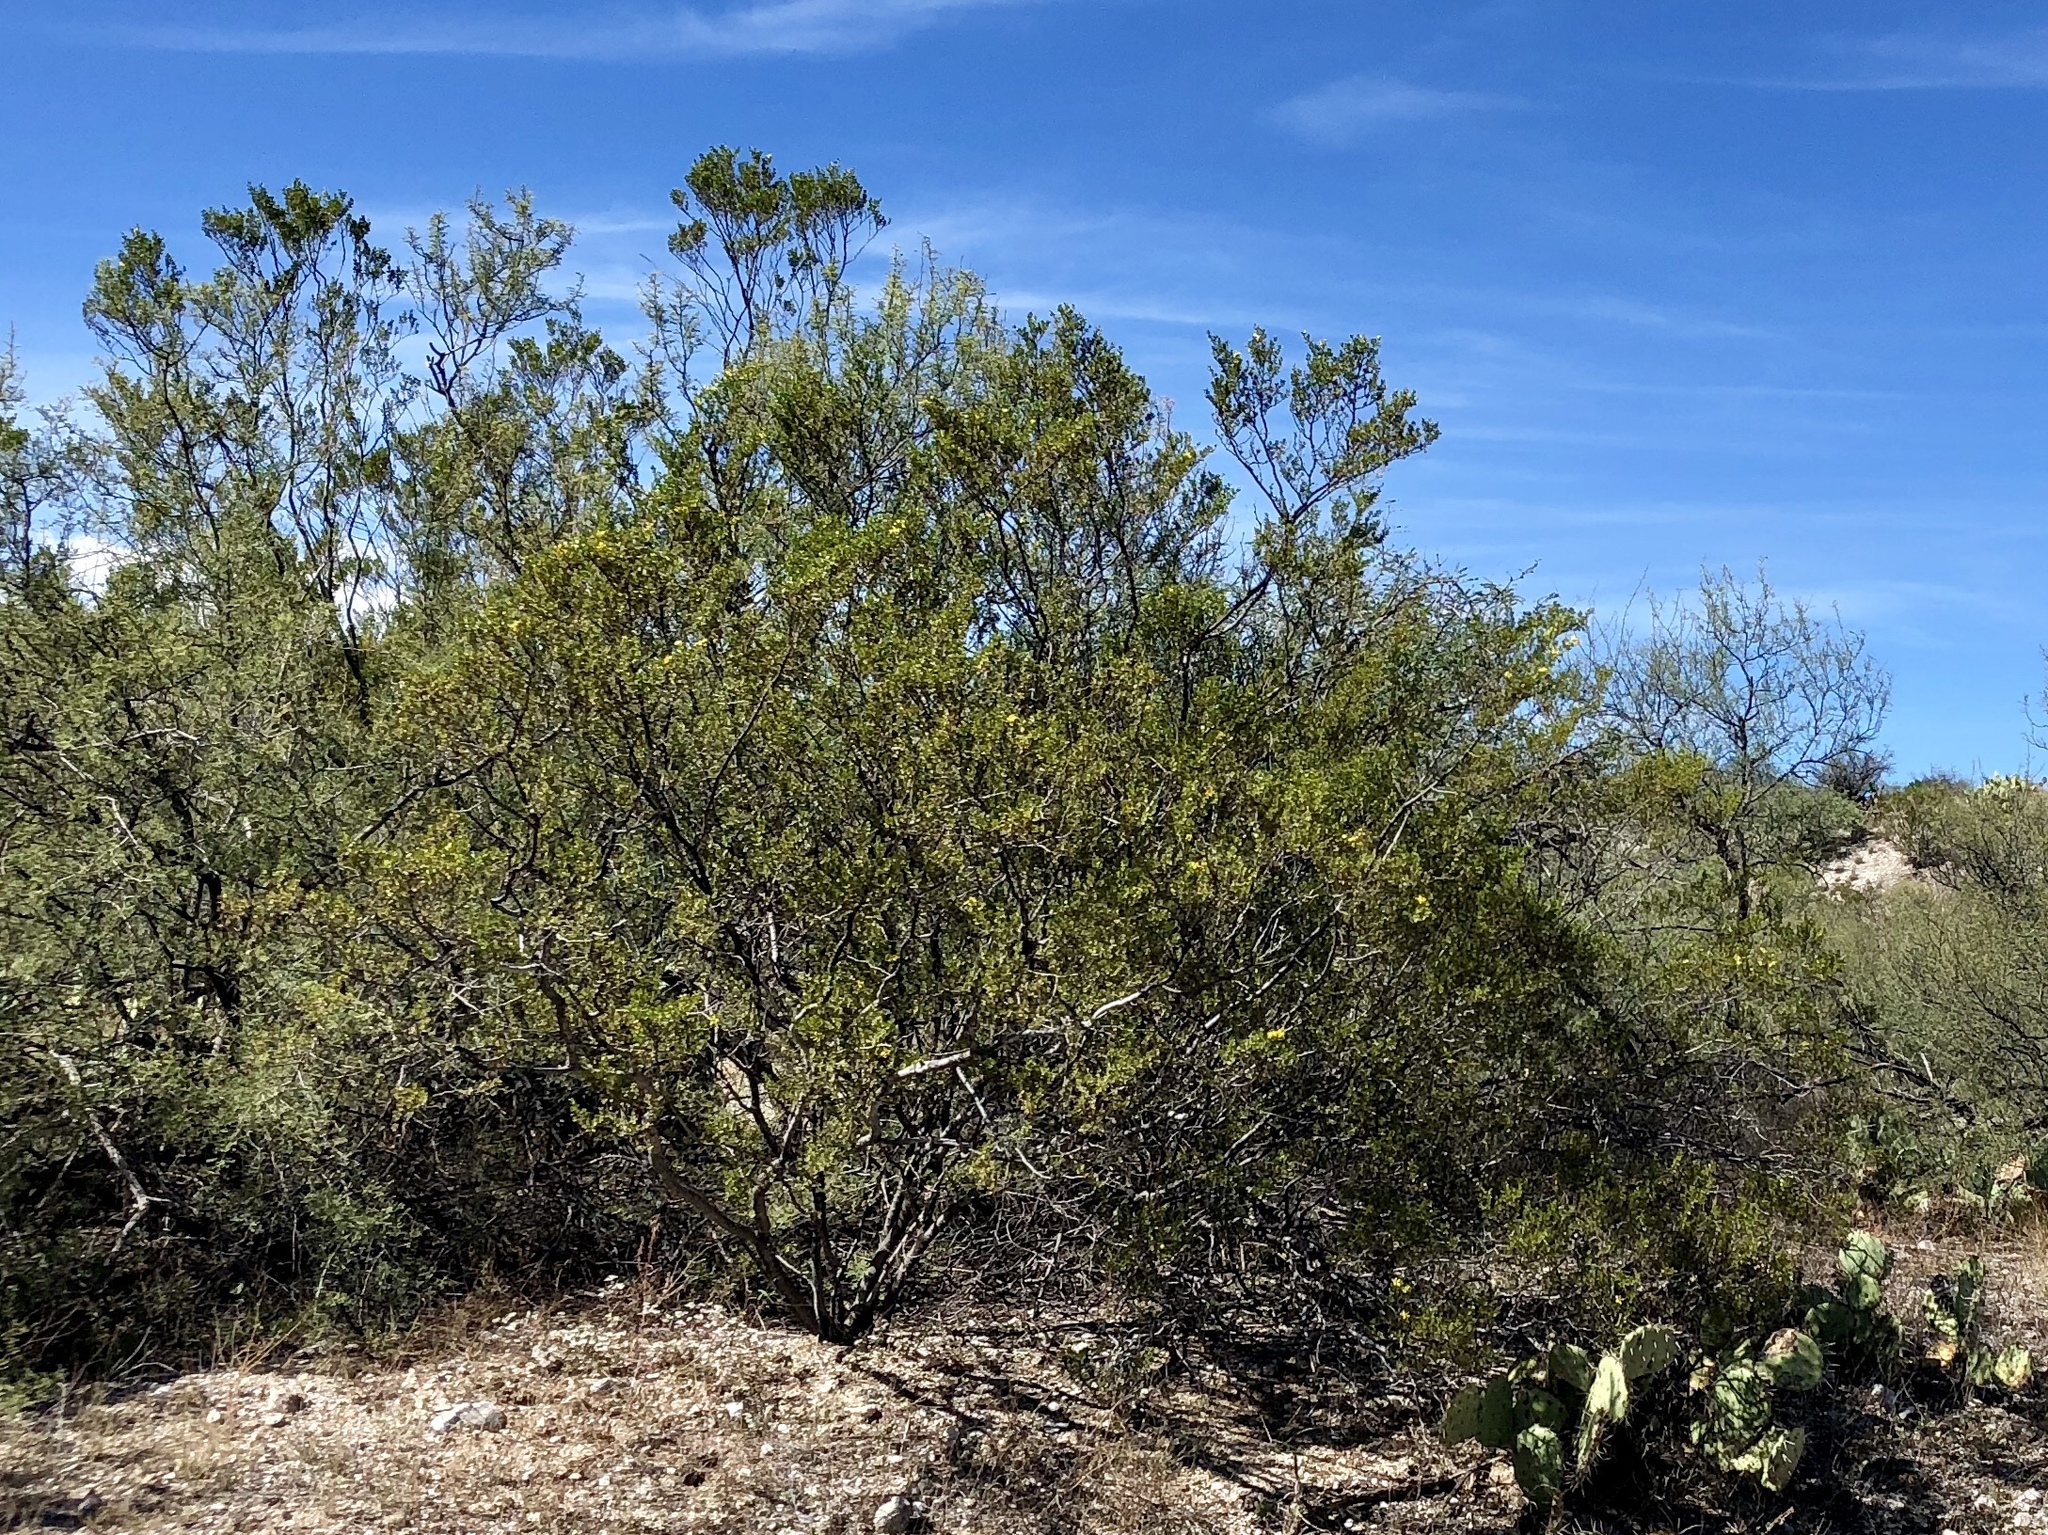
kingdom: Plantae
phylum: Tracheophyta
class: Magnoliopsida
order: Zygophyllales
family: Zygophyllaceae
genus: Larrea
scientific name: Larrea tridentata
